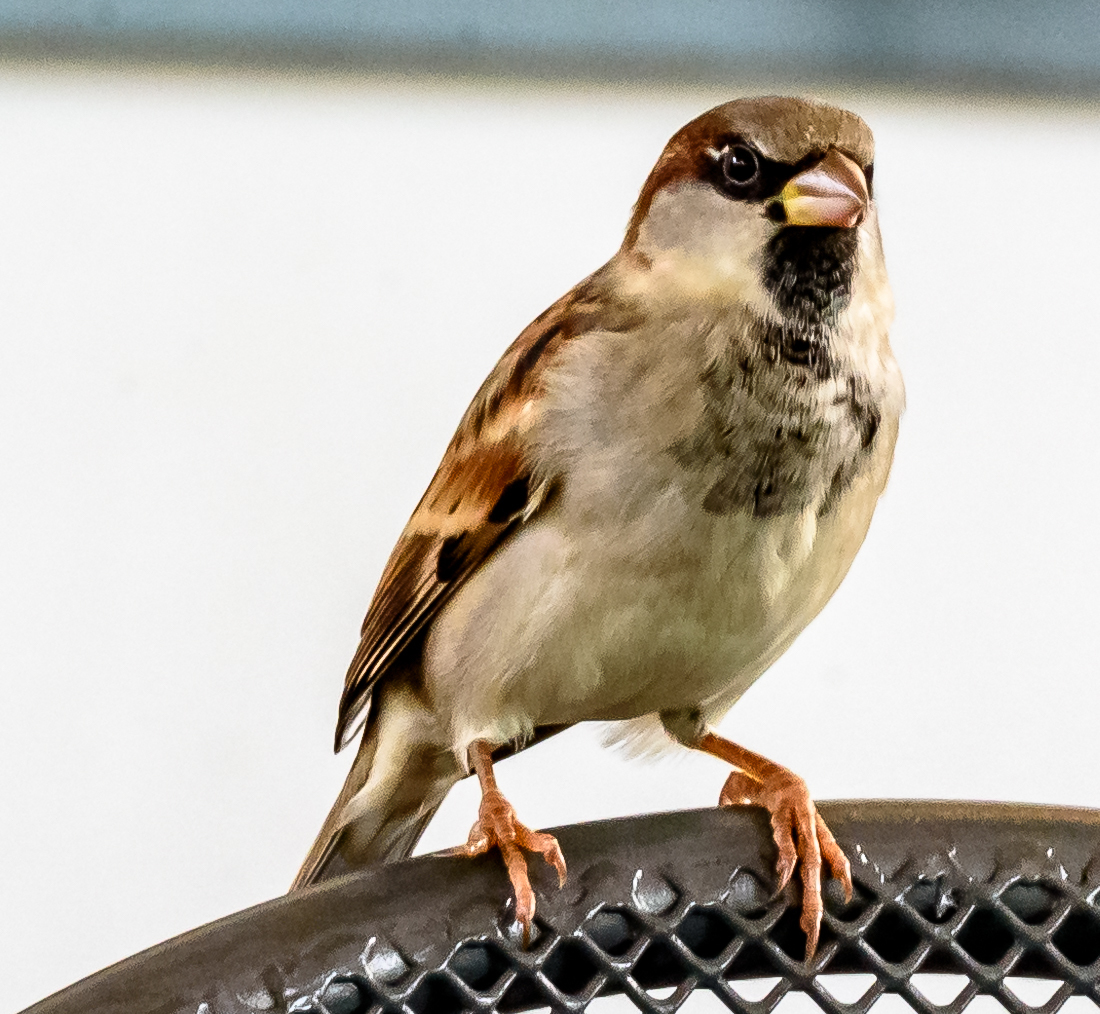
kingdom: Animalia
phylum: Chordata
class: Aves
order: Passeriformes
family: Passeridae
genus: Passer
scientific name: Passer domesticus
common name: House sparrow
